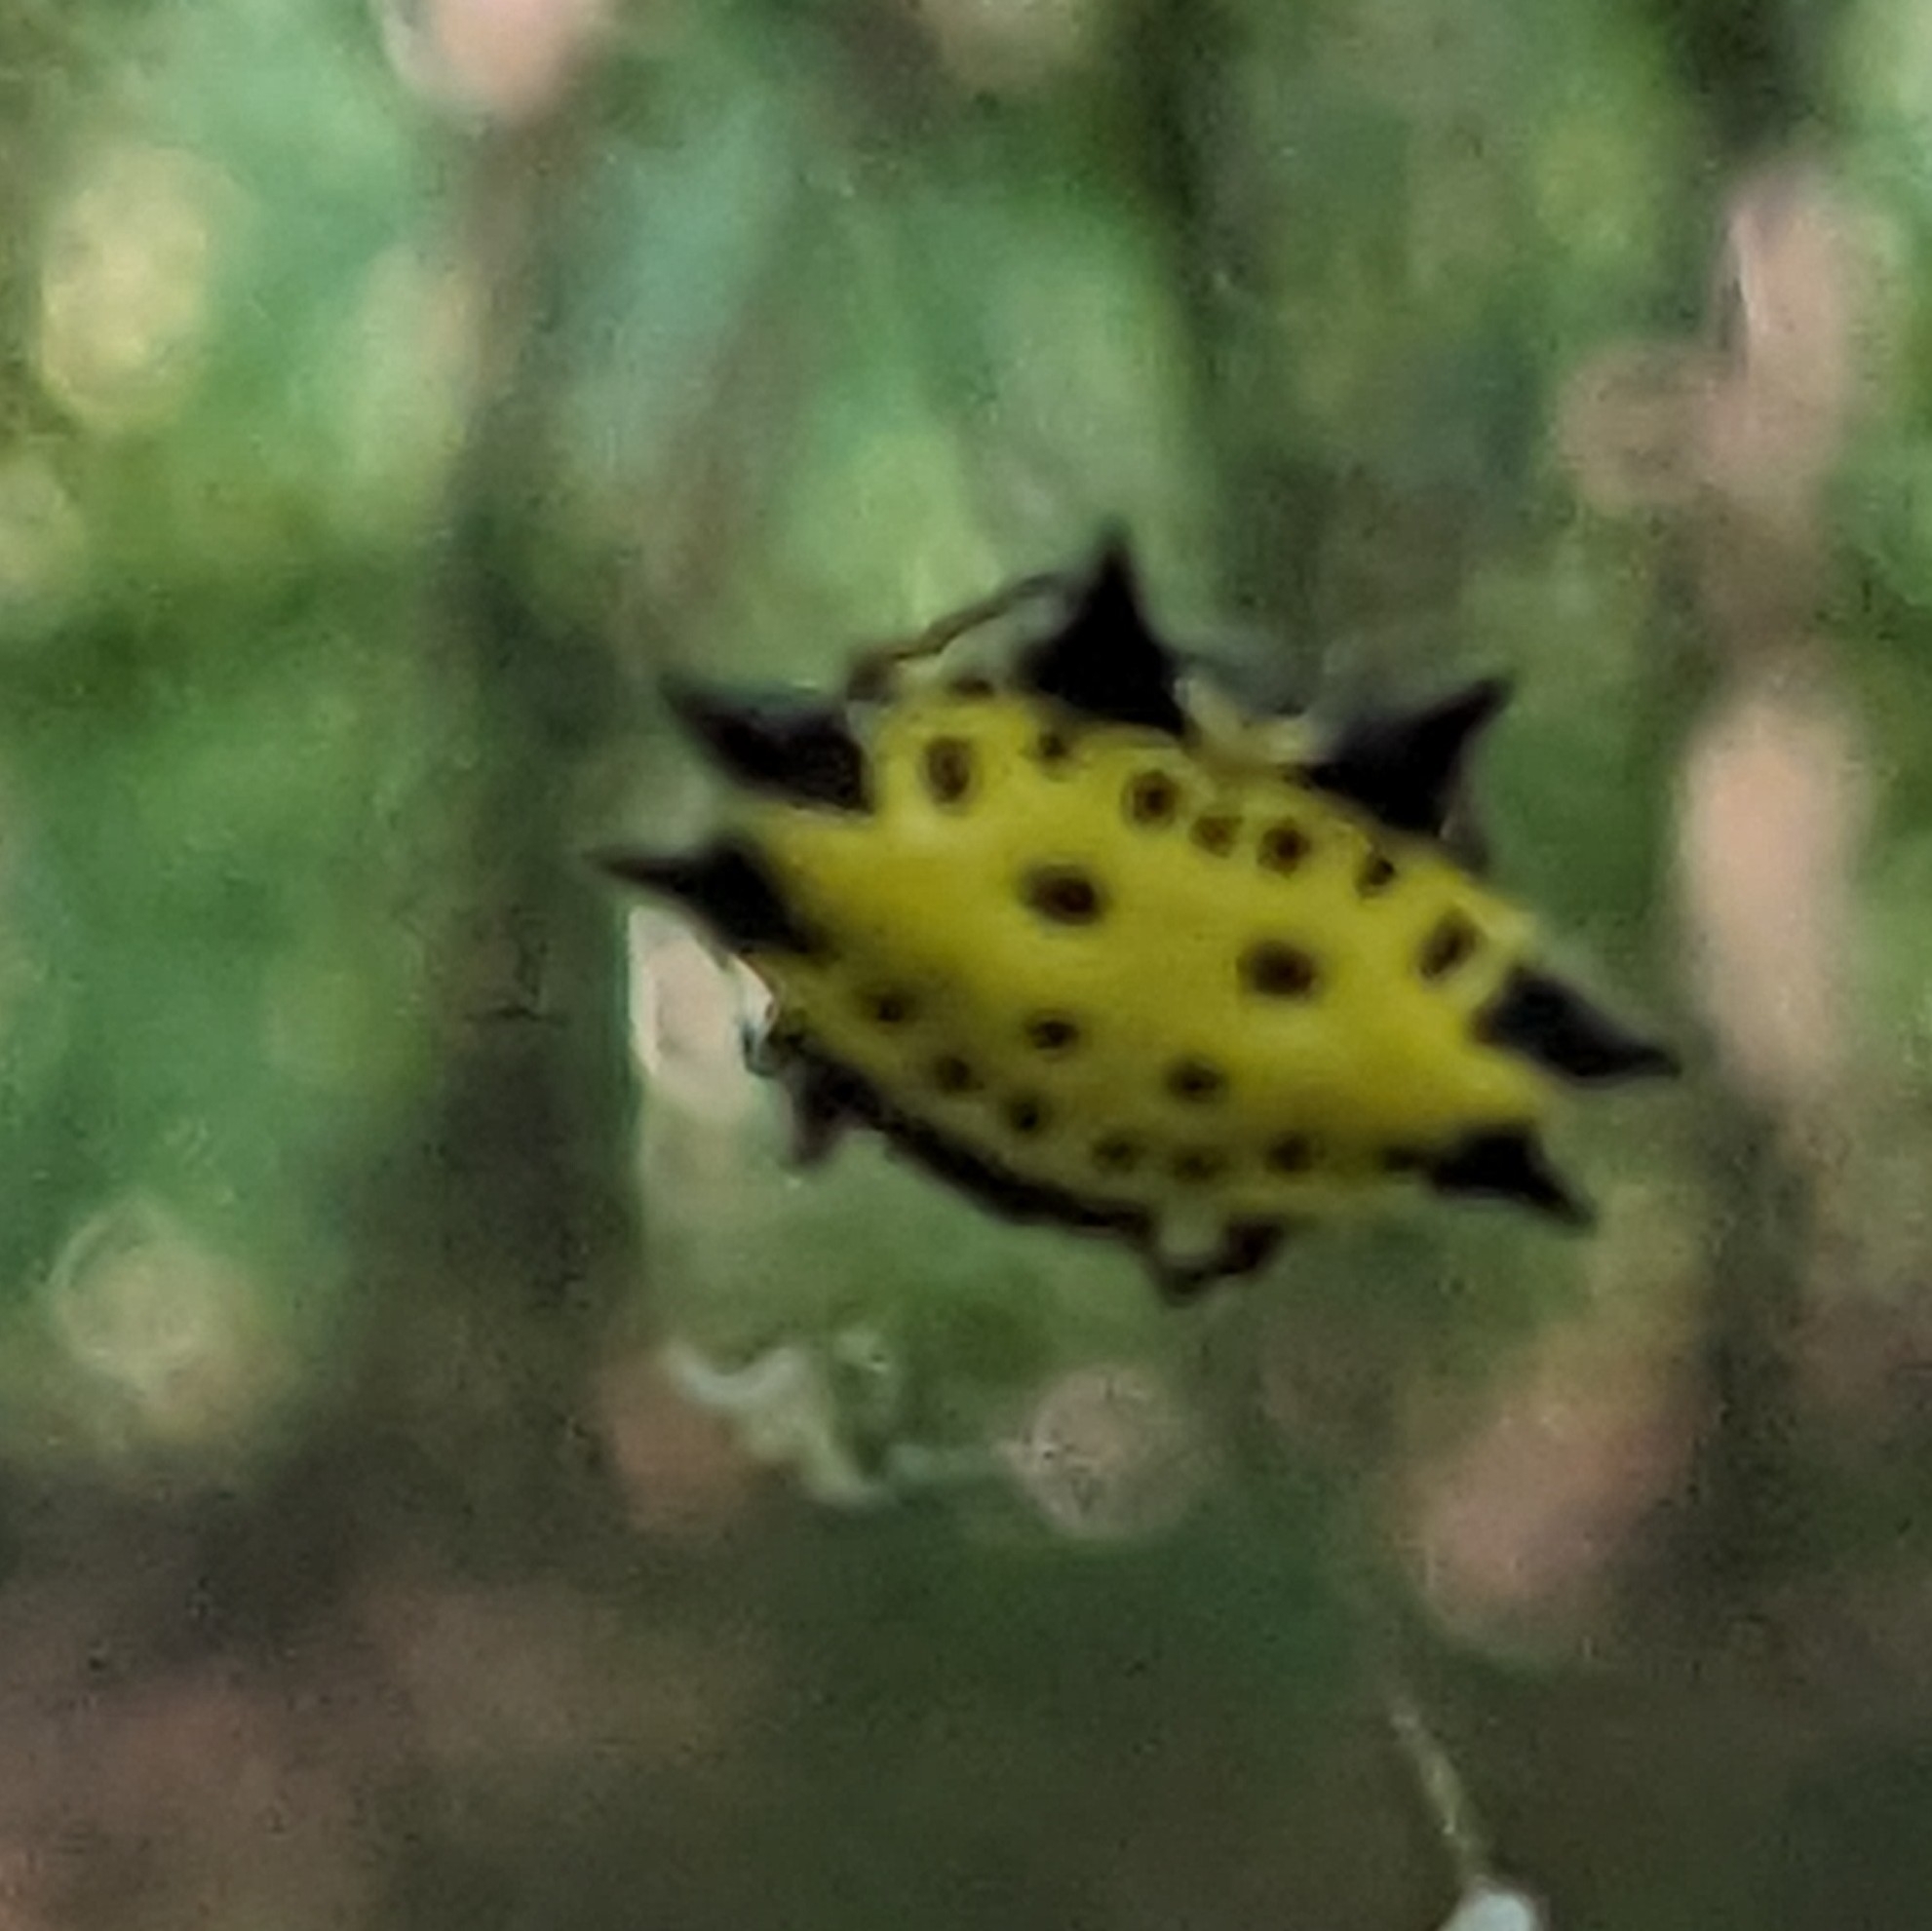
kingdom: Animalia
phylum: Arthropoda
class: Arachnida
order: Araneae
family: Araneidae
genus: Gasteracantha
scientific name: Gasteracantha cancriformis
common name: Orb weavers
